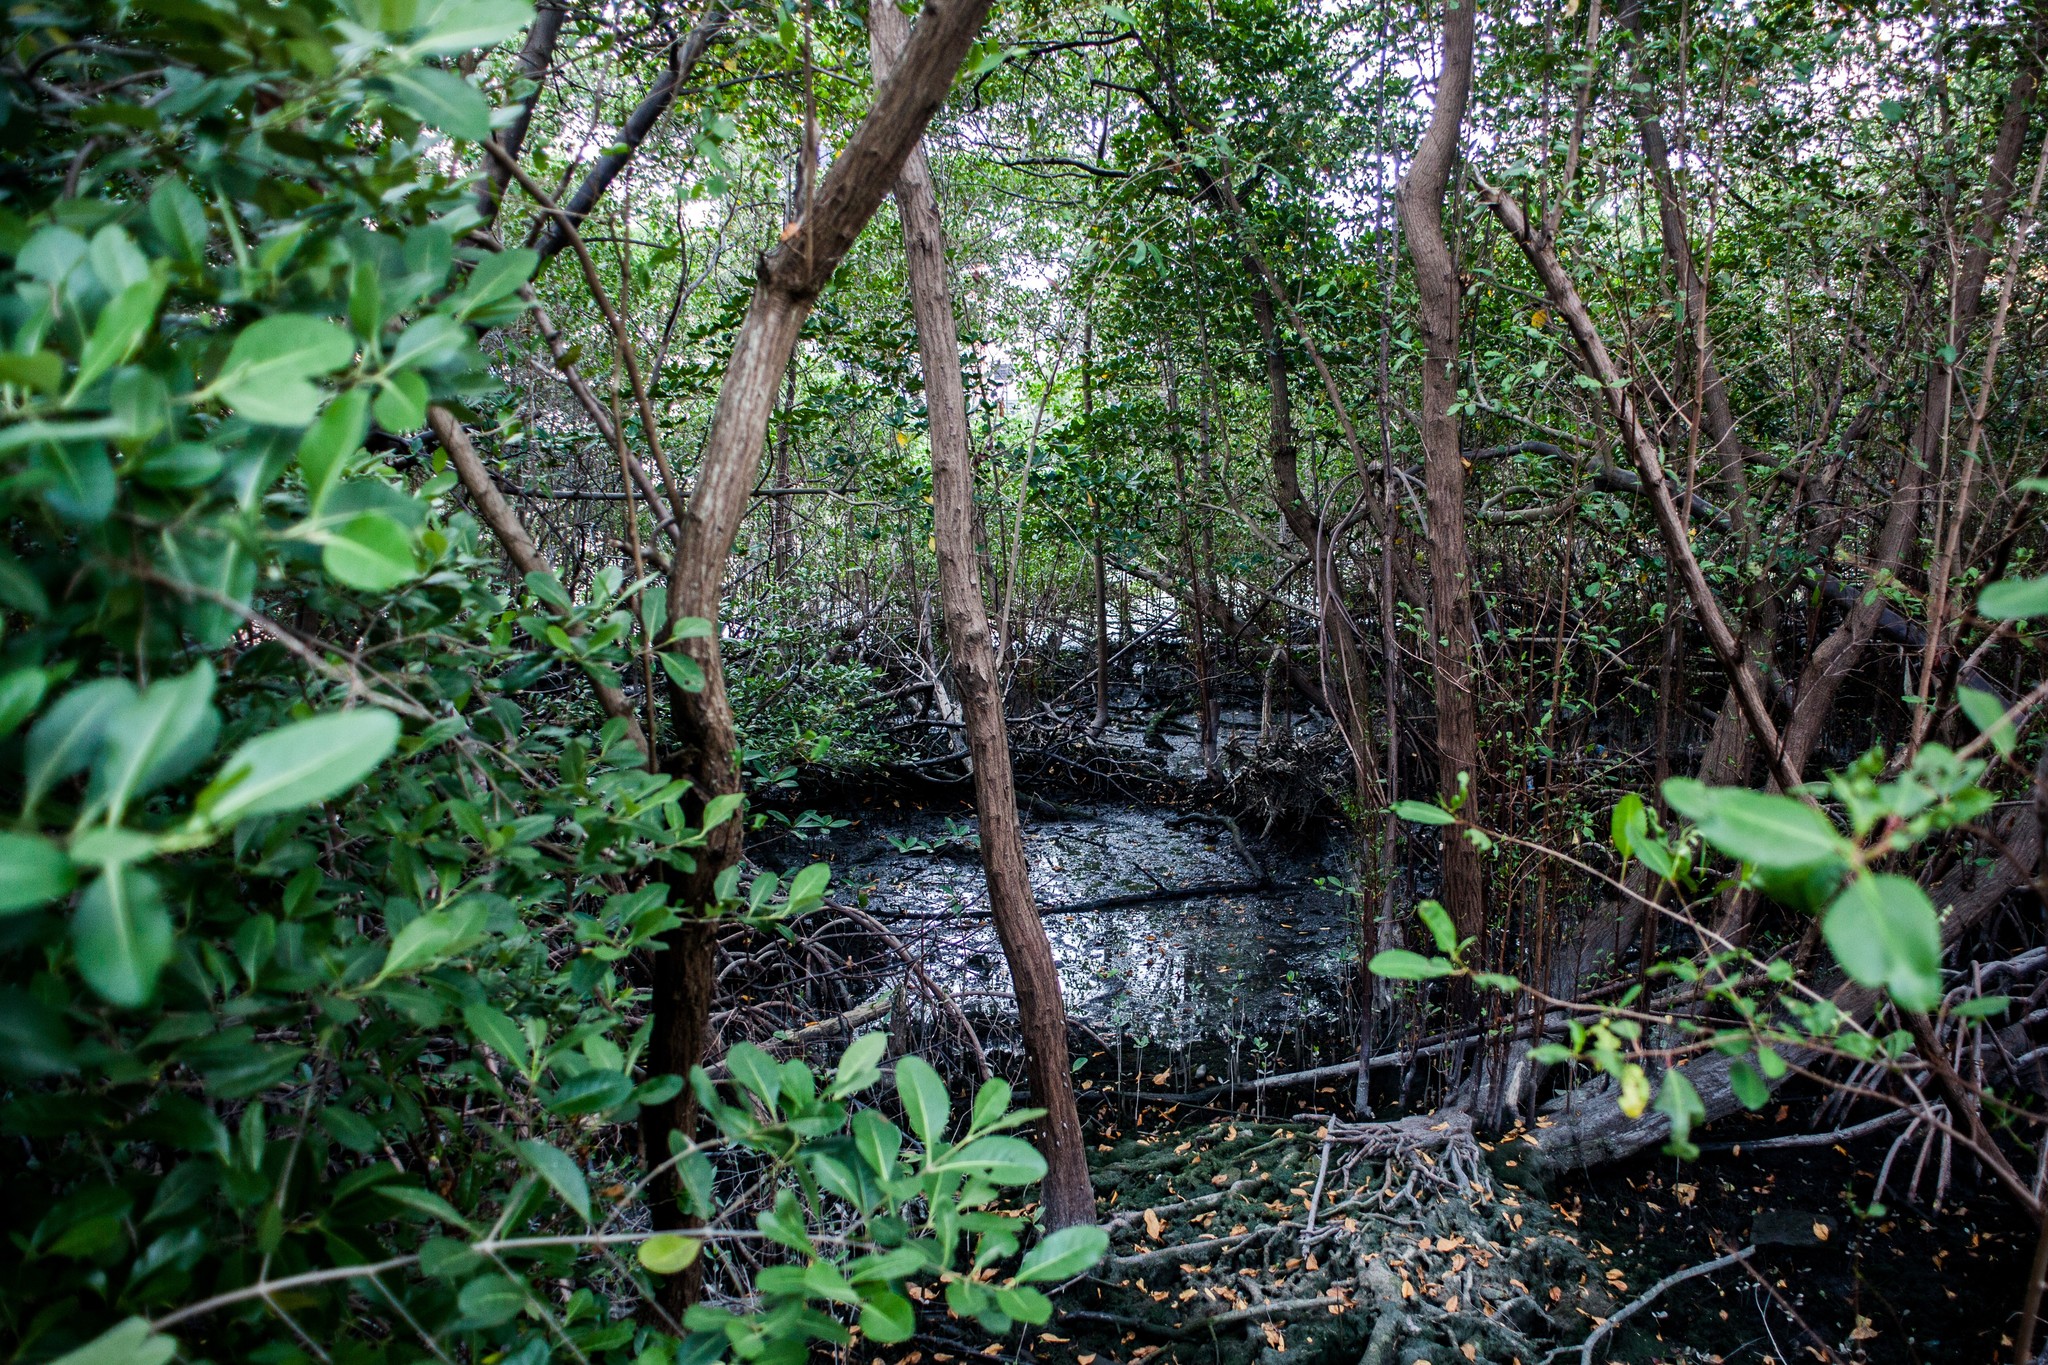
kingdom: Plantae
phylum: Tracheophyta
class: Magnoliopsida
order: Myrtales
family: Combretaceae
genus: Laguncularia
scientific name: Laguncularia racemosa
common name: White mangrove
